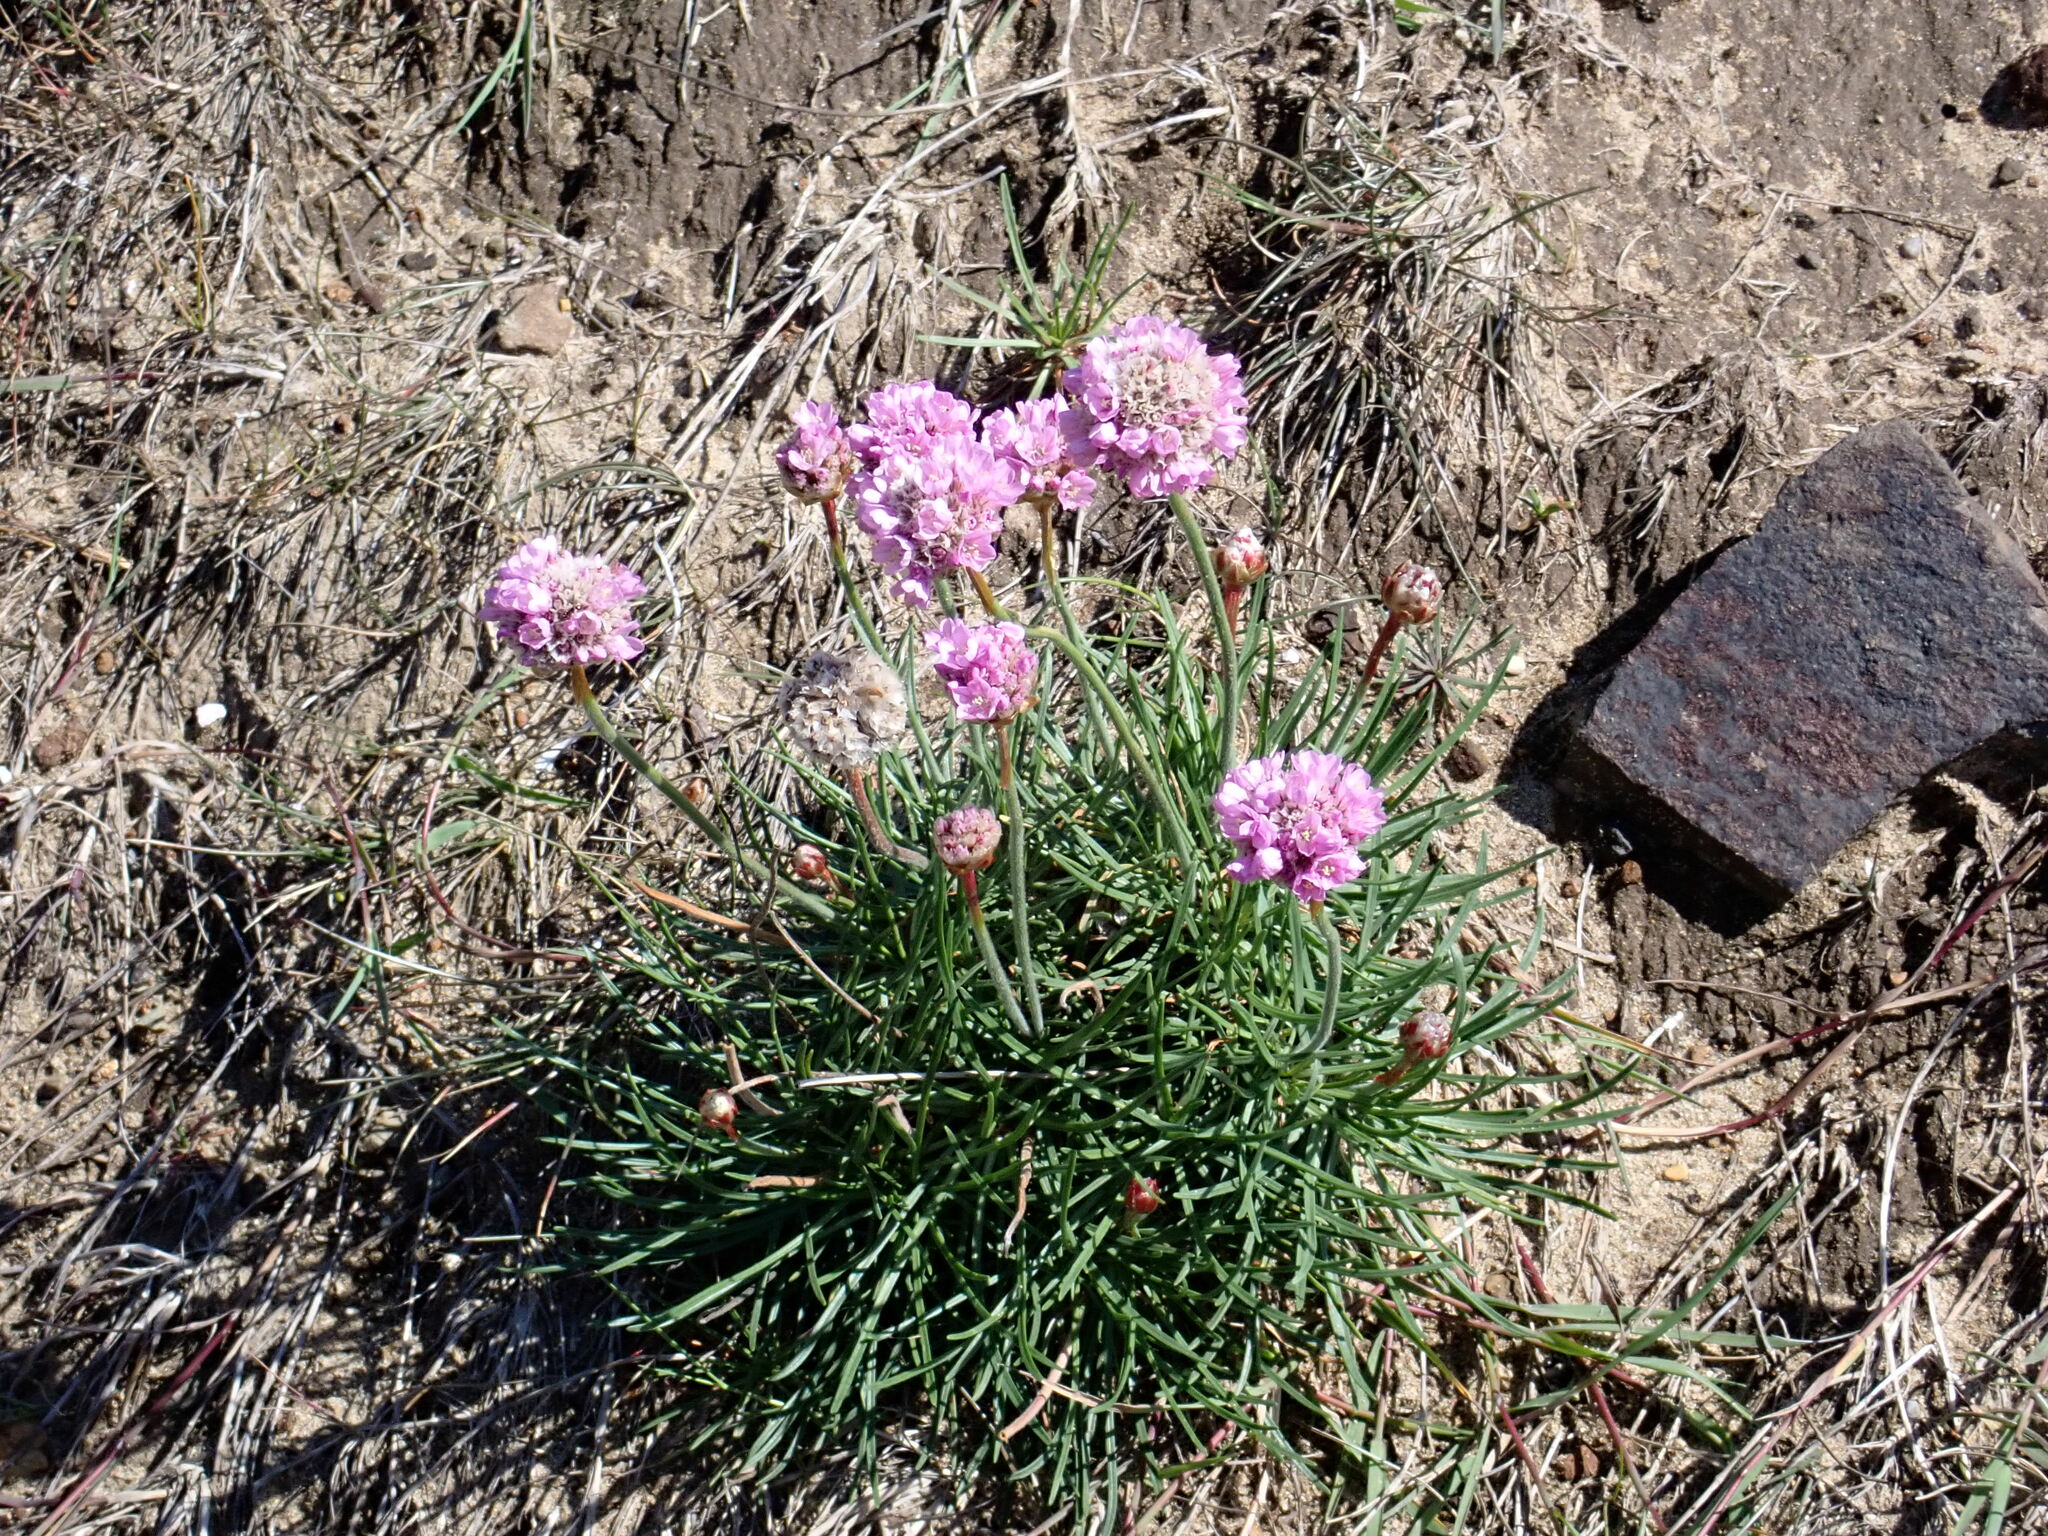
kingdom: Plantae
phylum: Tracheophyta
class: Magnoliopsida
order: Caryophyllales
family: Plumbaginaceae
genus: Armeria
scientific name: Armeria maritima
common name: Thrift
